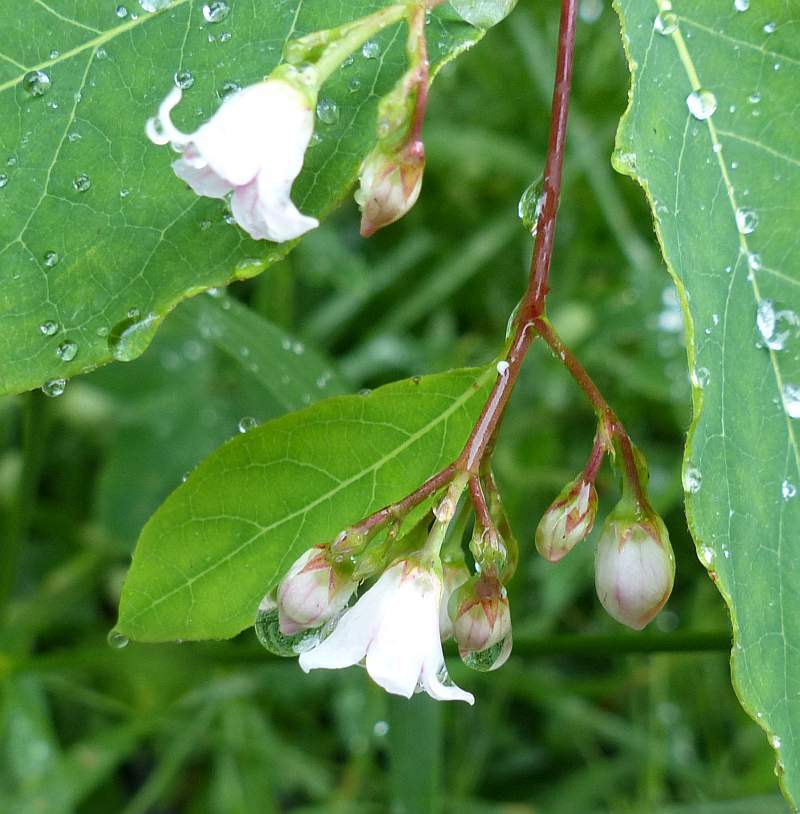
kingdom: Plantae
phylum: Tracheophyta
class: Magnoliopsida
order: Gentianales
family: Apocynaceae
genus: Apocynum
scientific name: Apocynum androsaemifolium
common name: Spreading dogbane
